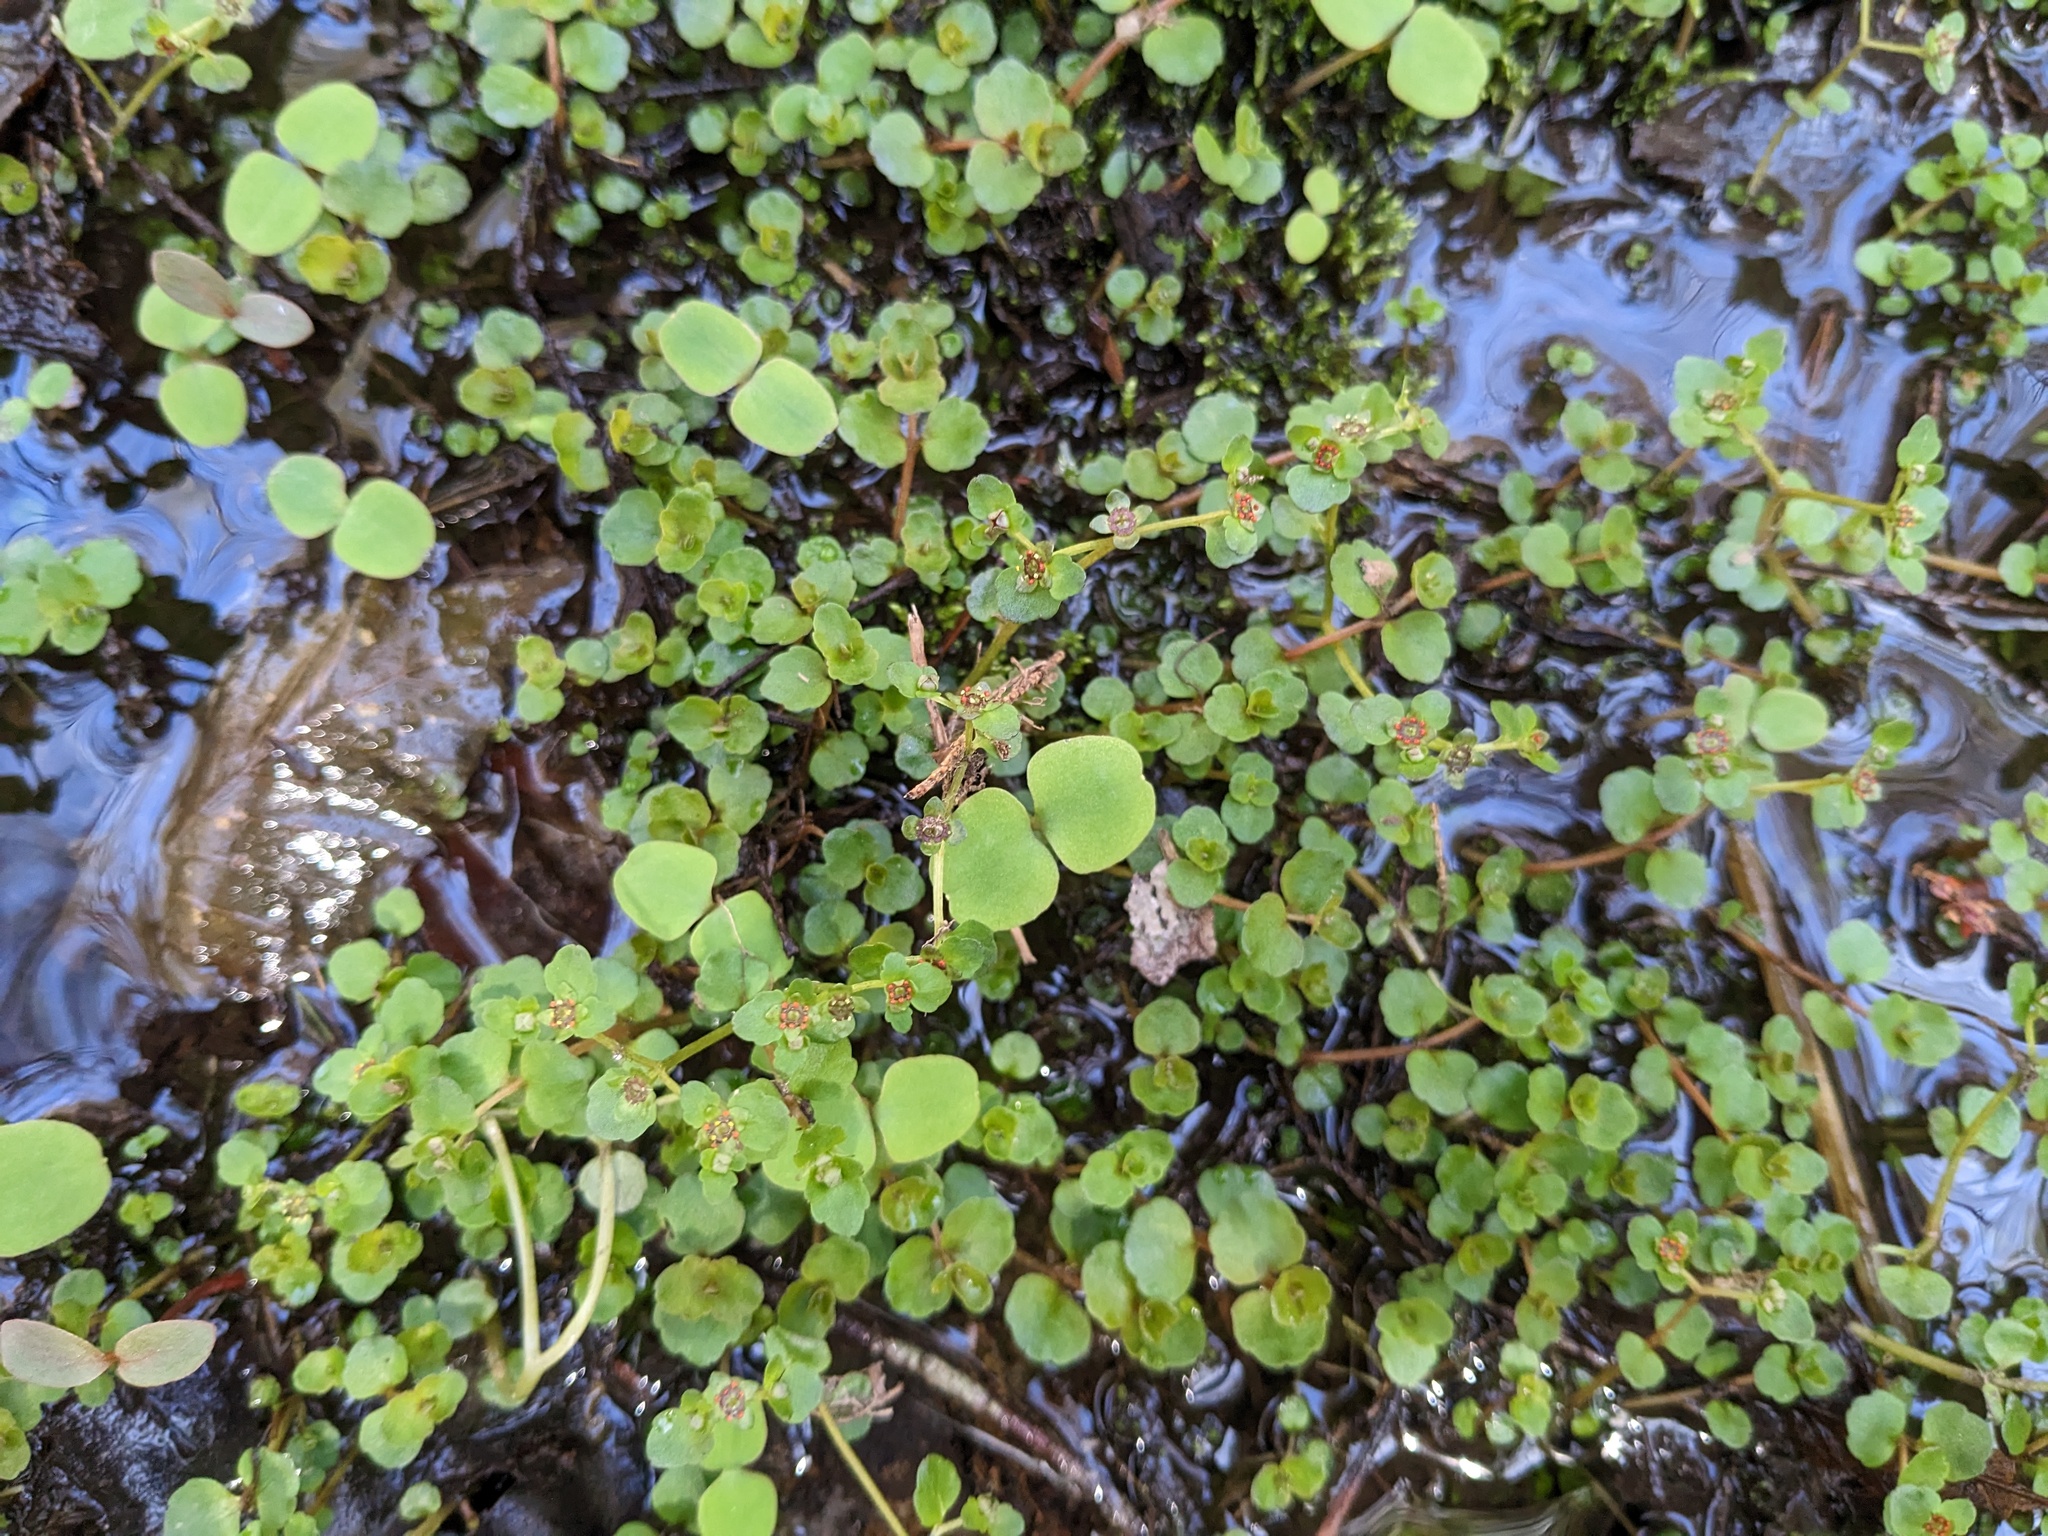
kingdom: Plantae
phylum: Tracheophyta
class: Magnoliopsida
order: Saxifragales
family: Saxifragaceae
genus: Chrysosplenium
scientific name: Chrysosplenium americanum
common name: American golden-saxifrage
